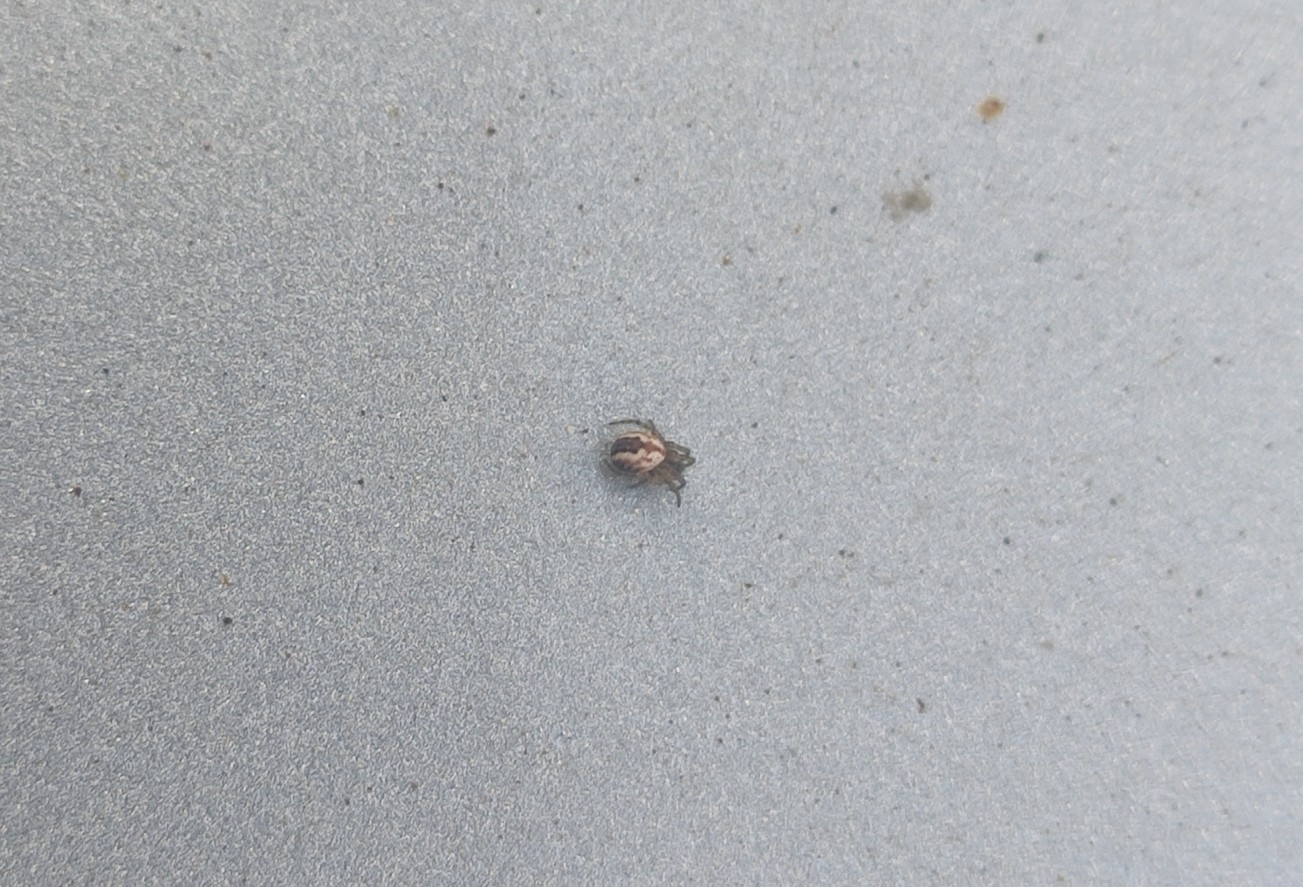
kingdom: Animalia
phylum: Arthropoda
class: Arachnida
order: Araneae
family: Araneidae
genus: Mangora
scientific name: Mangora acalypha
